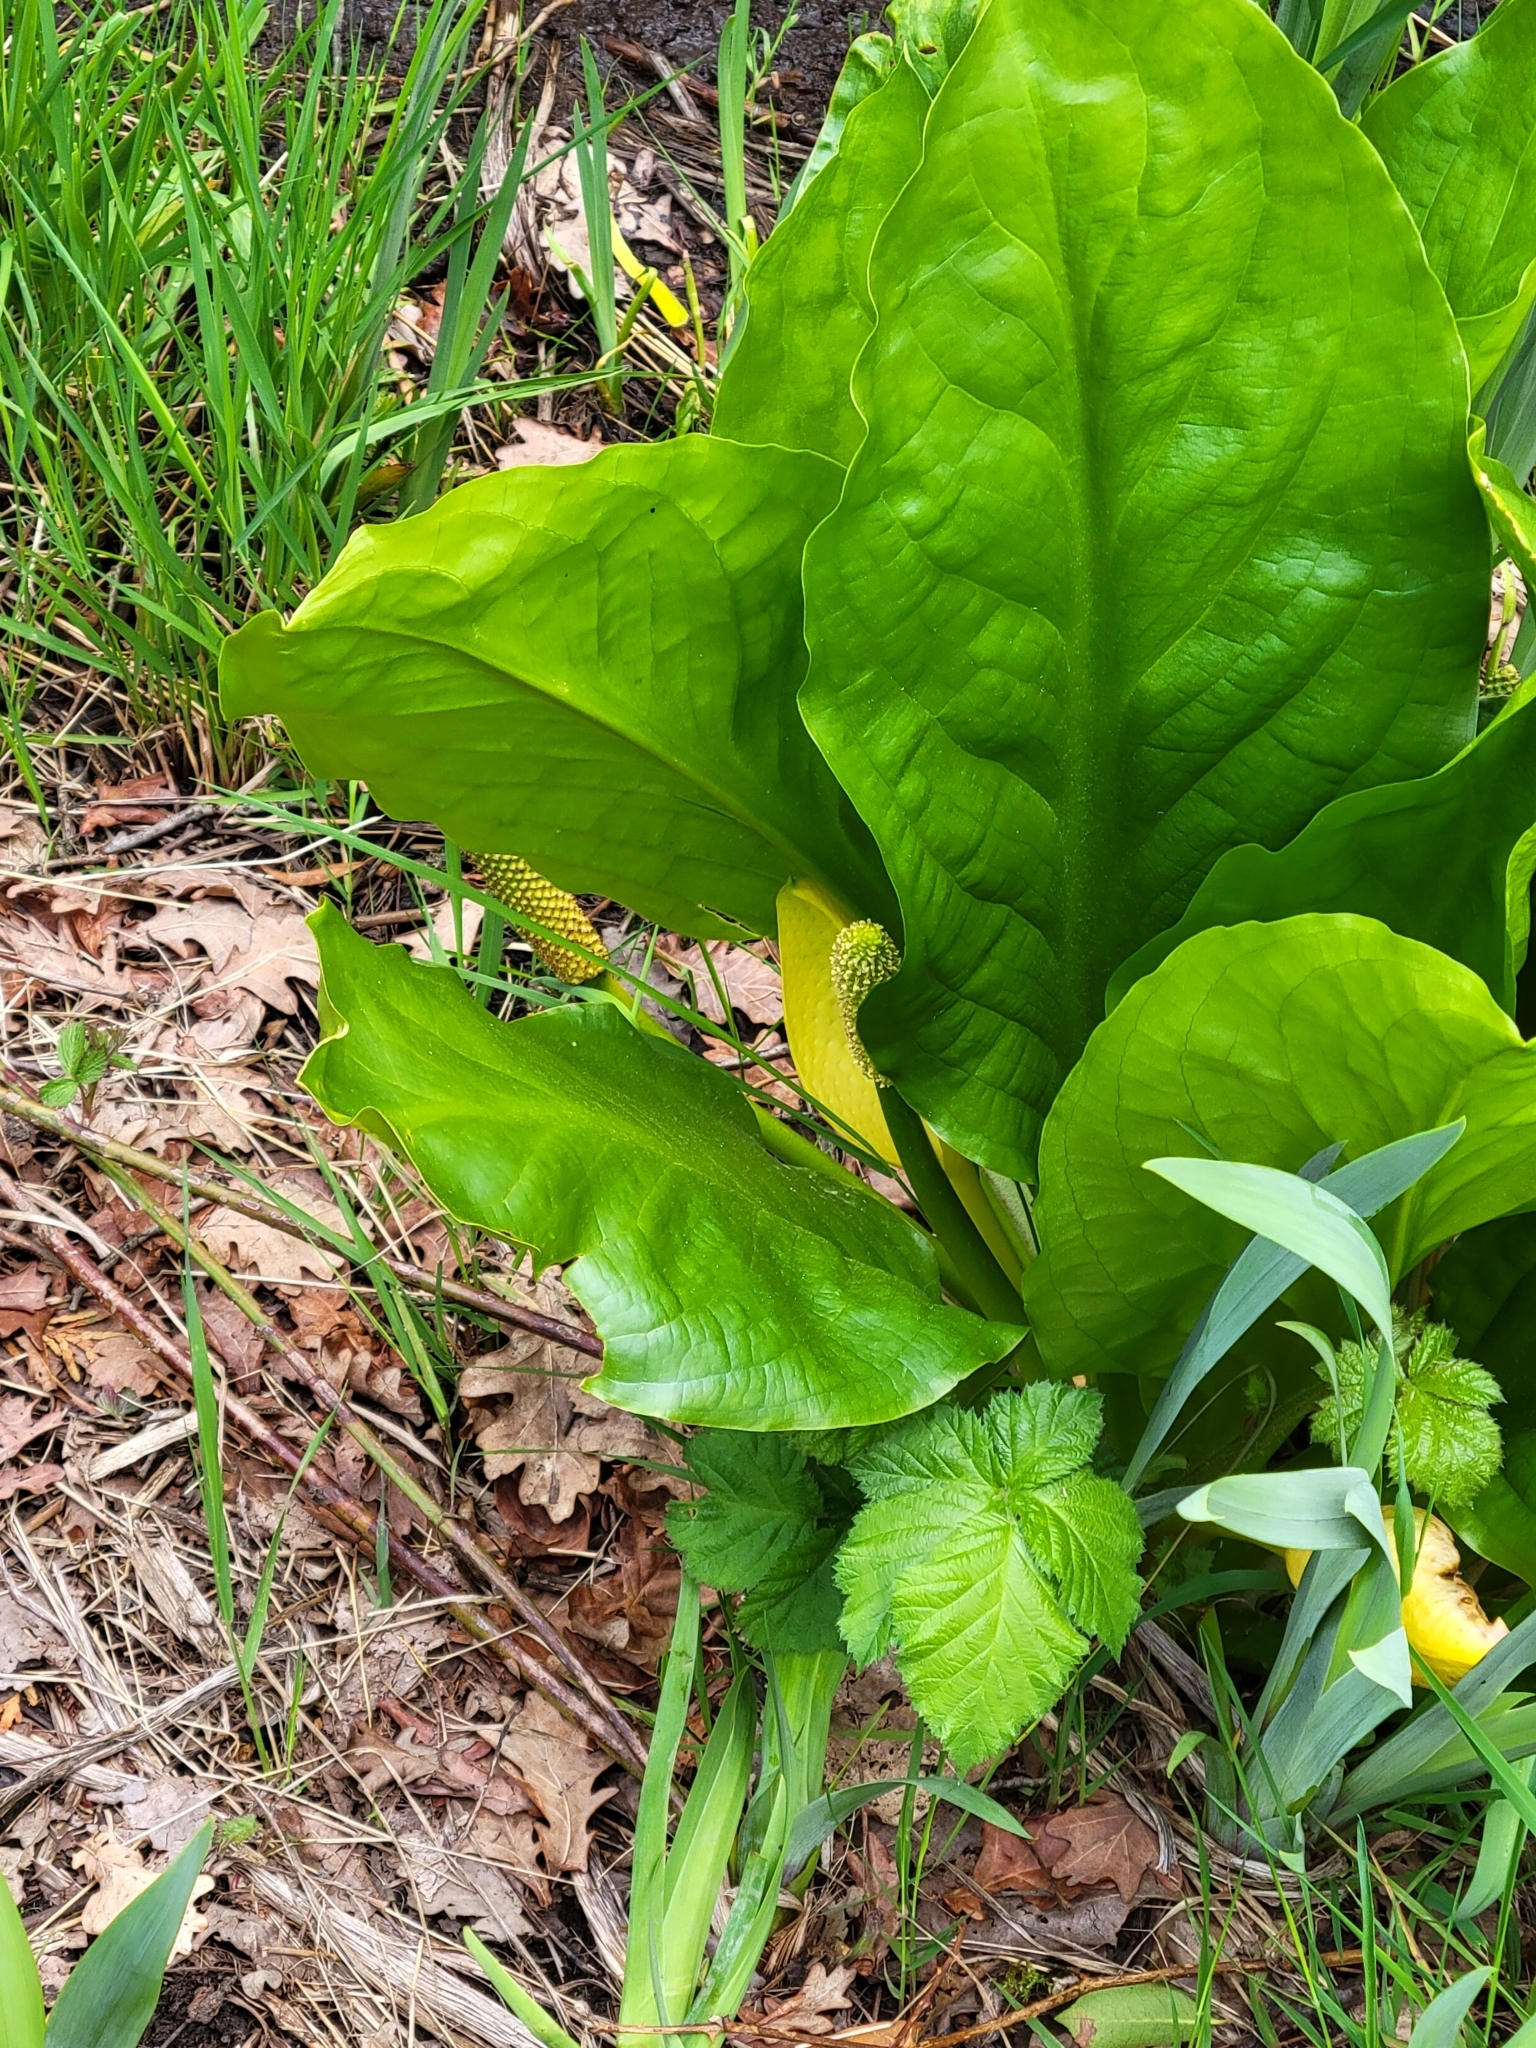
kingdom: Plantae
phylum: Tracheophyta
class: Liliopsida
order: Alismatales
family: Araceae
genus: Lysichiton
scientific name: Lysichiton americanus
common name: American skunk cabbage
